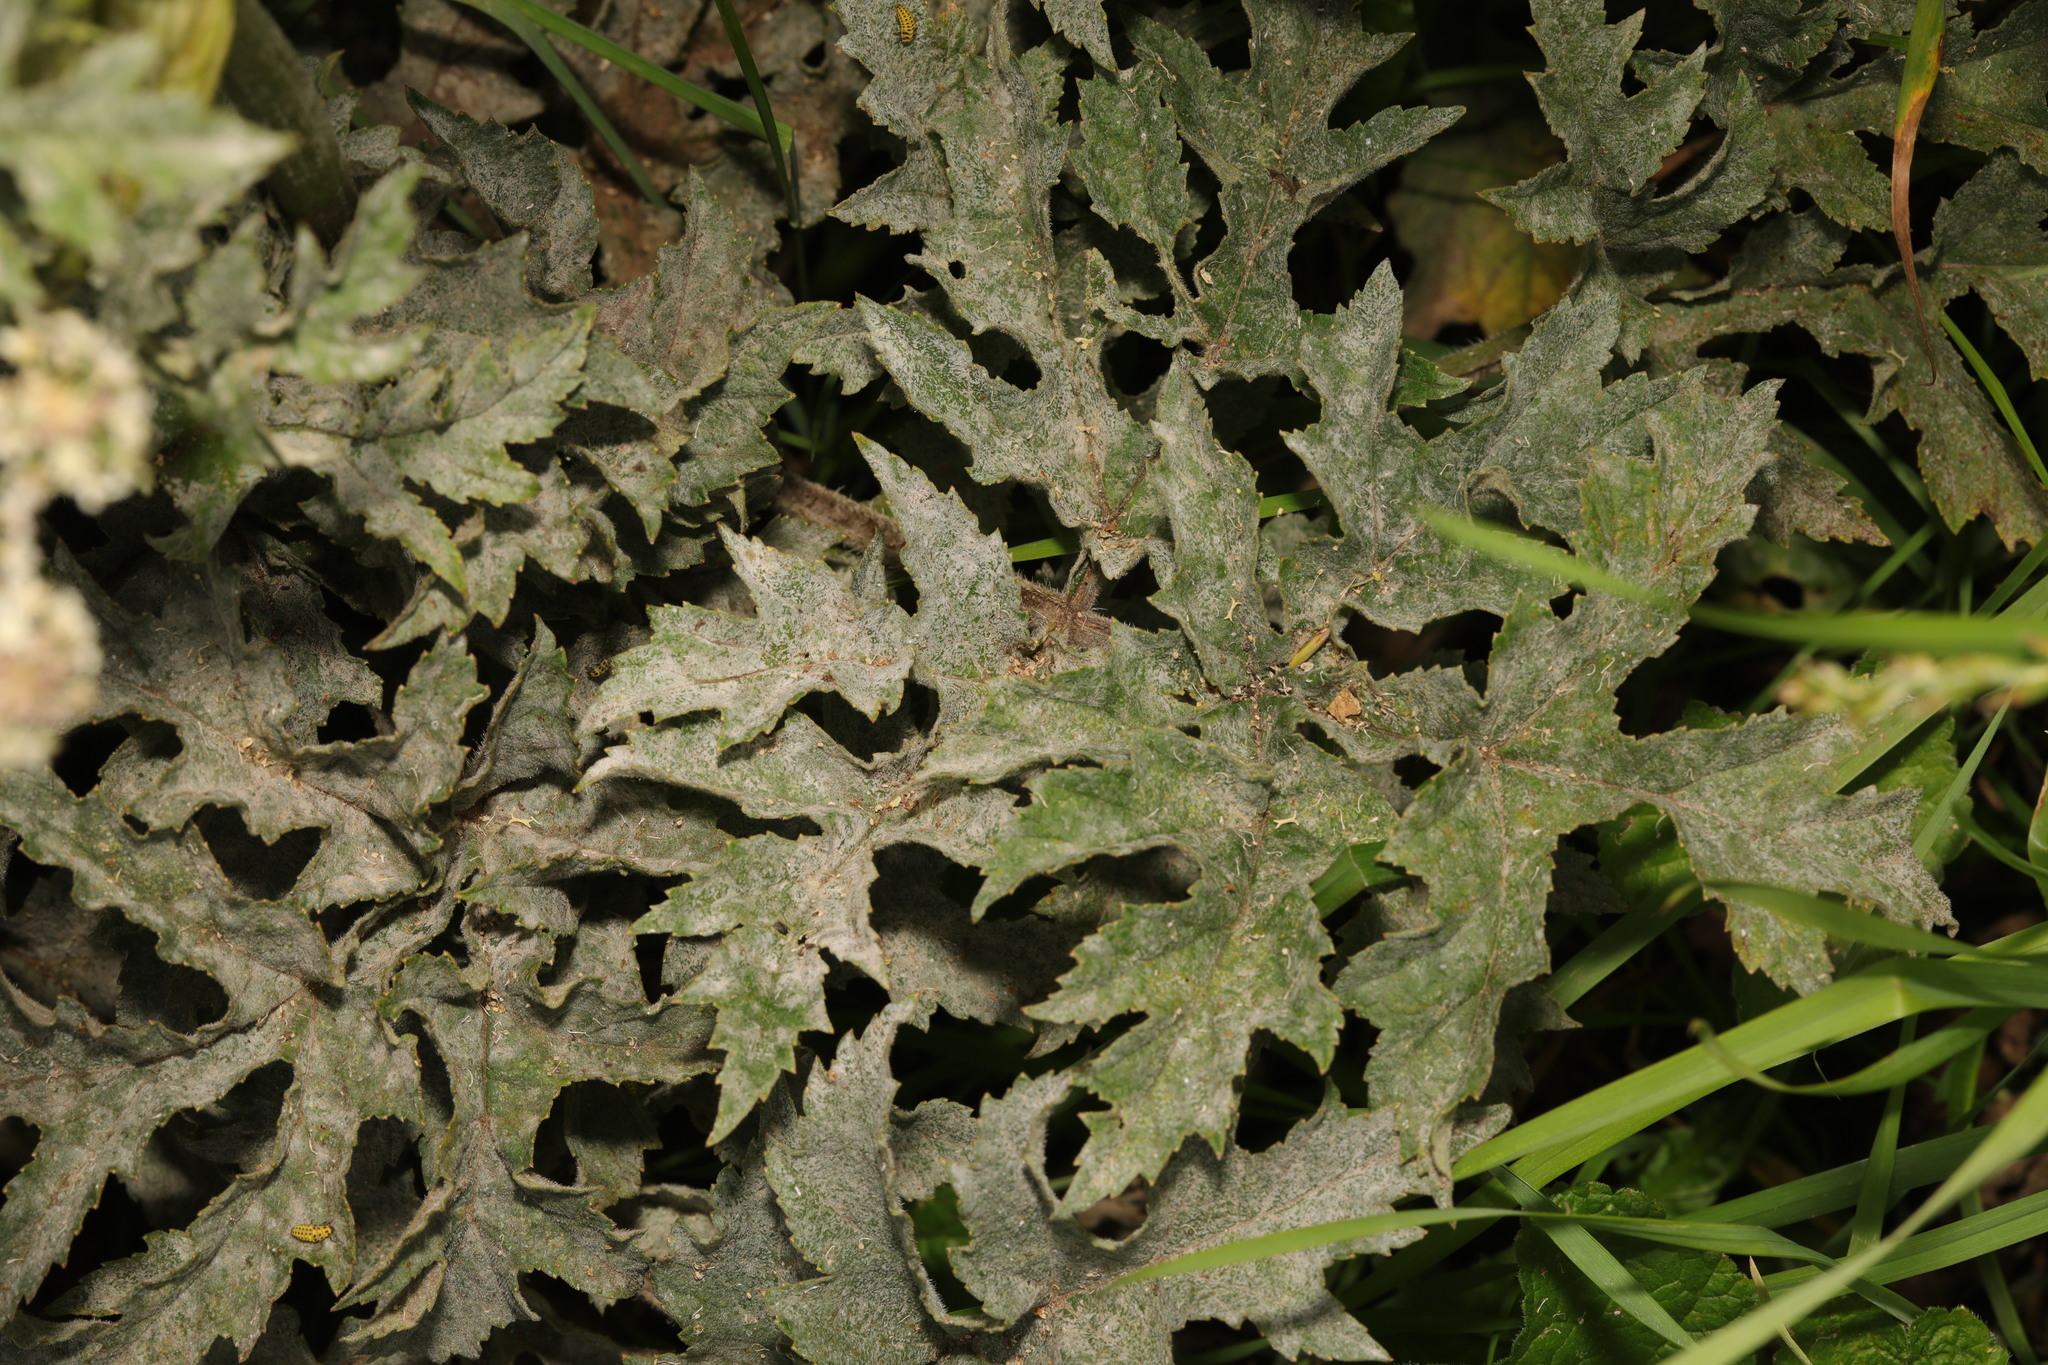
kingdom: Fungi
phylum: Ascomycota
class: Leotiomycetes
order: Helotiales
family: Erysiphaceae
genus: Erysiphe
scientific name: Erysiphe heraclei
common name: Umbellifer mildew
